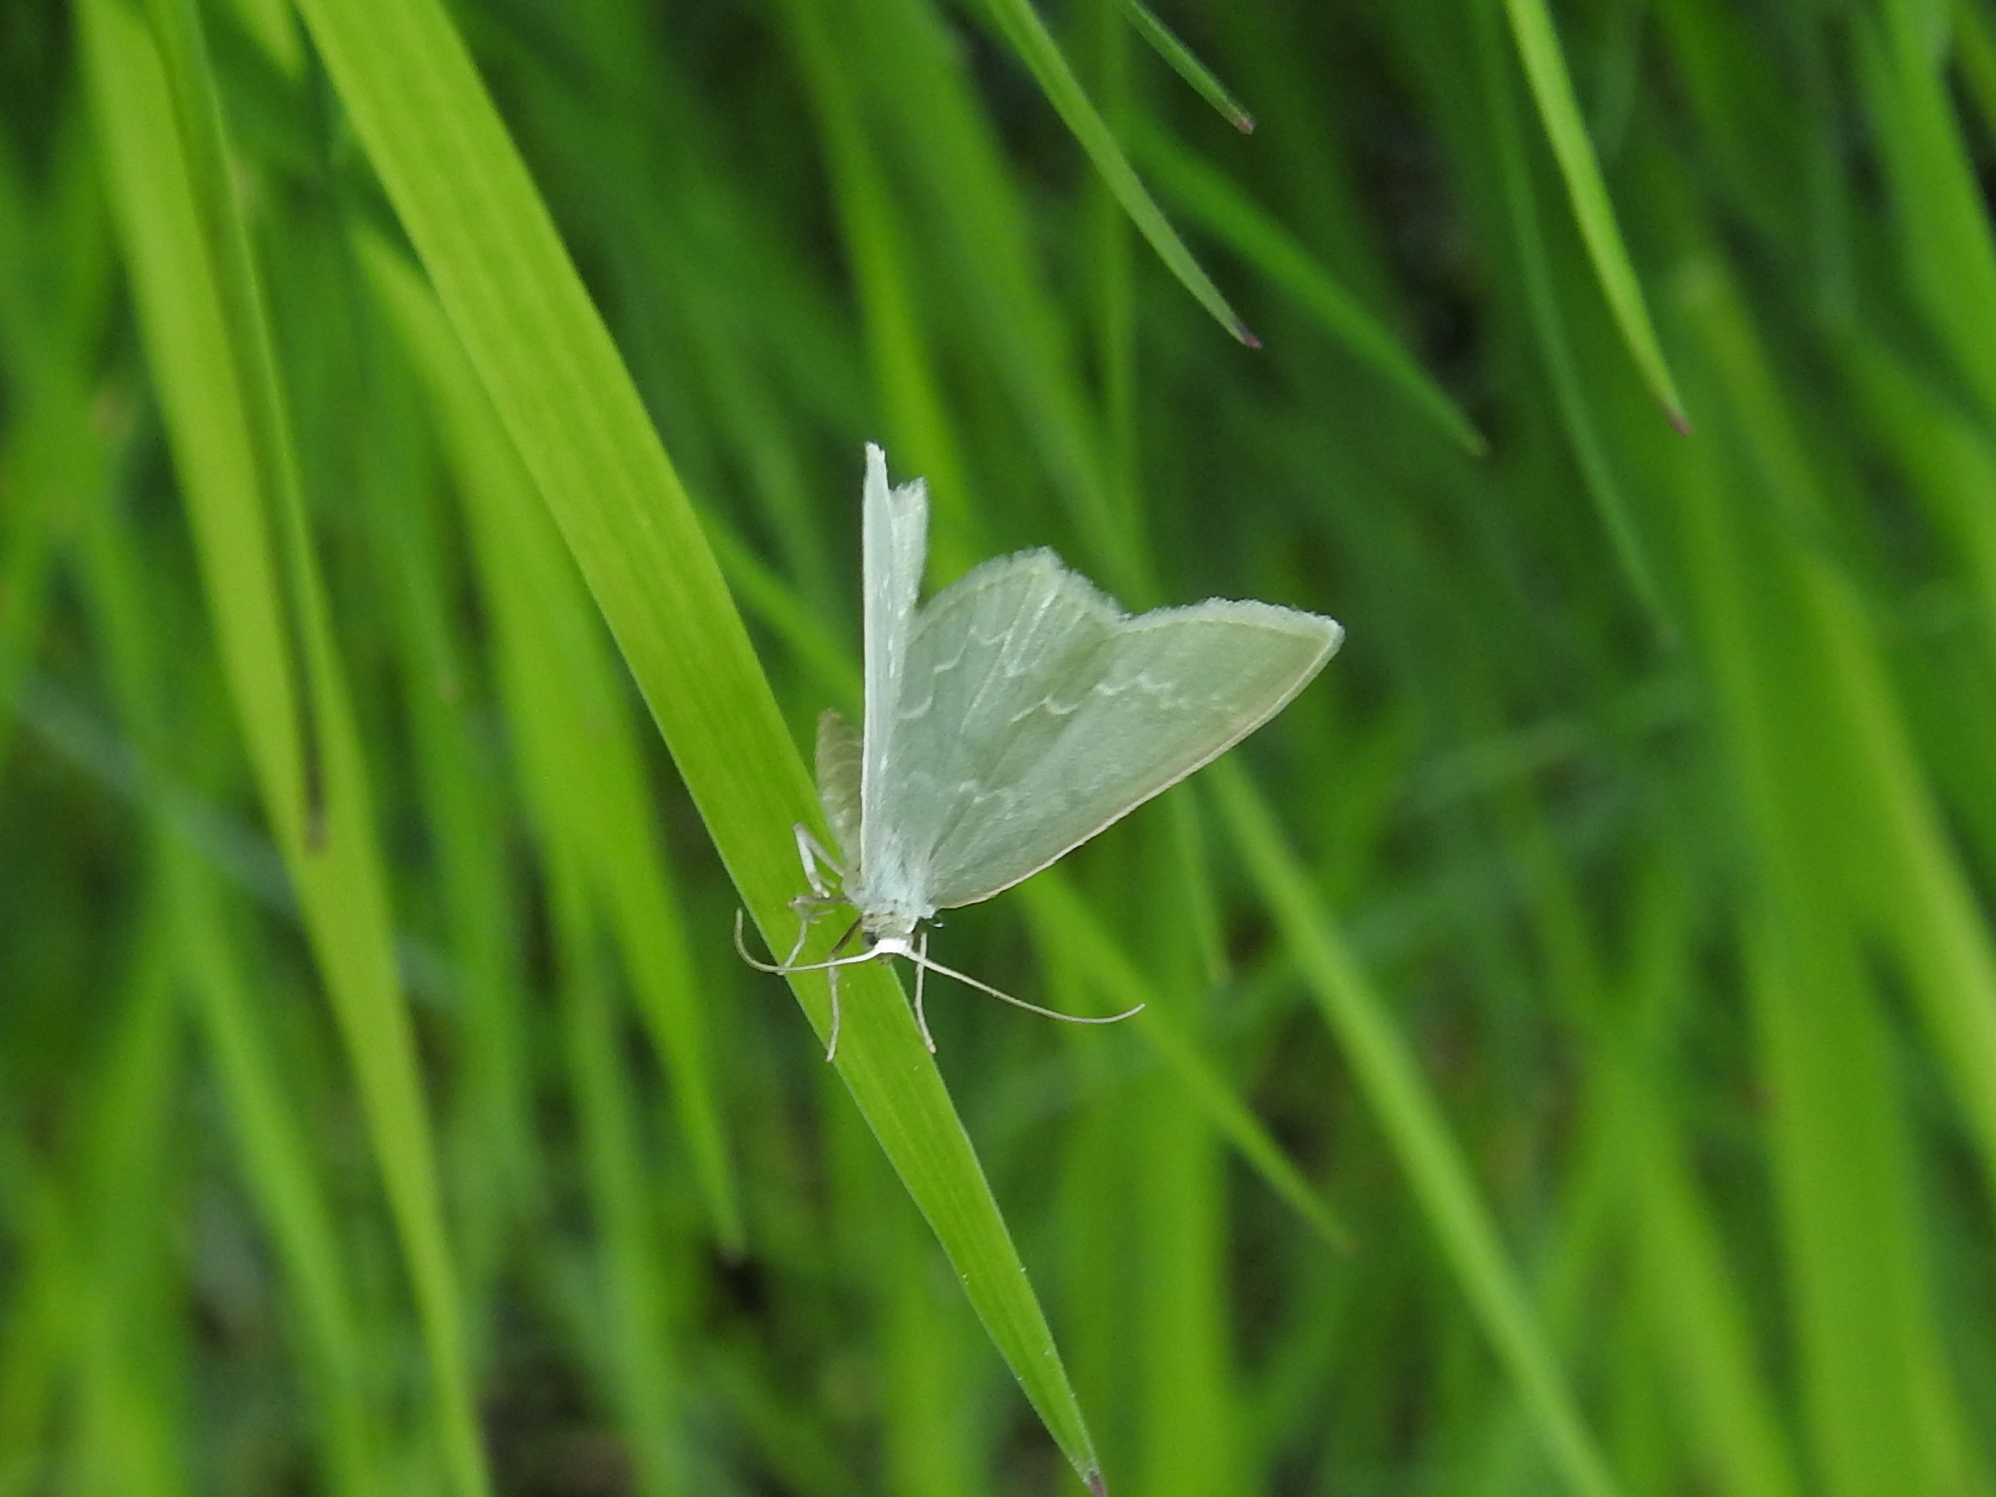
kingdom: Animalia
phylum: Arthropoda
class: Insecta
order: Lepidoptera
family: Geometridae
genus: Jodis
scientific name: Jodis putata
